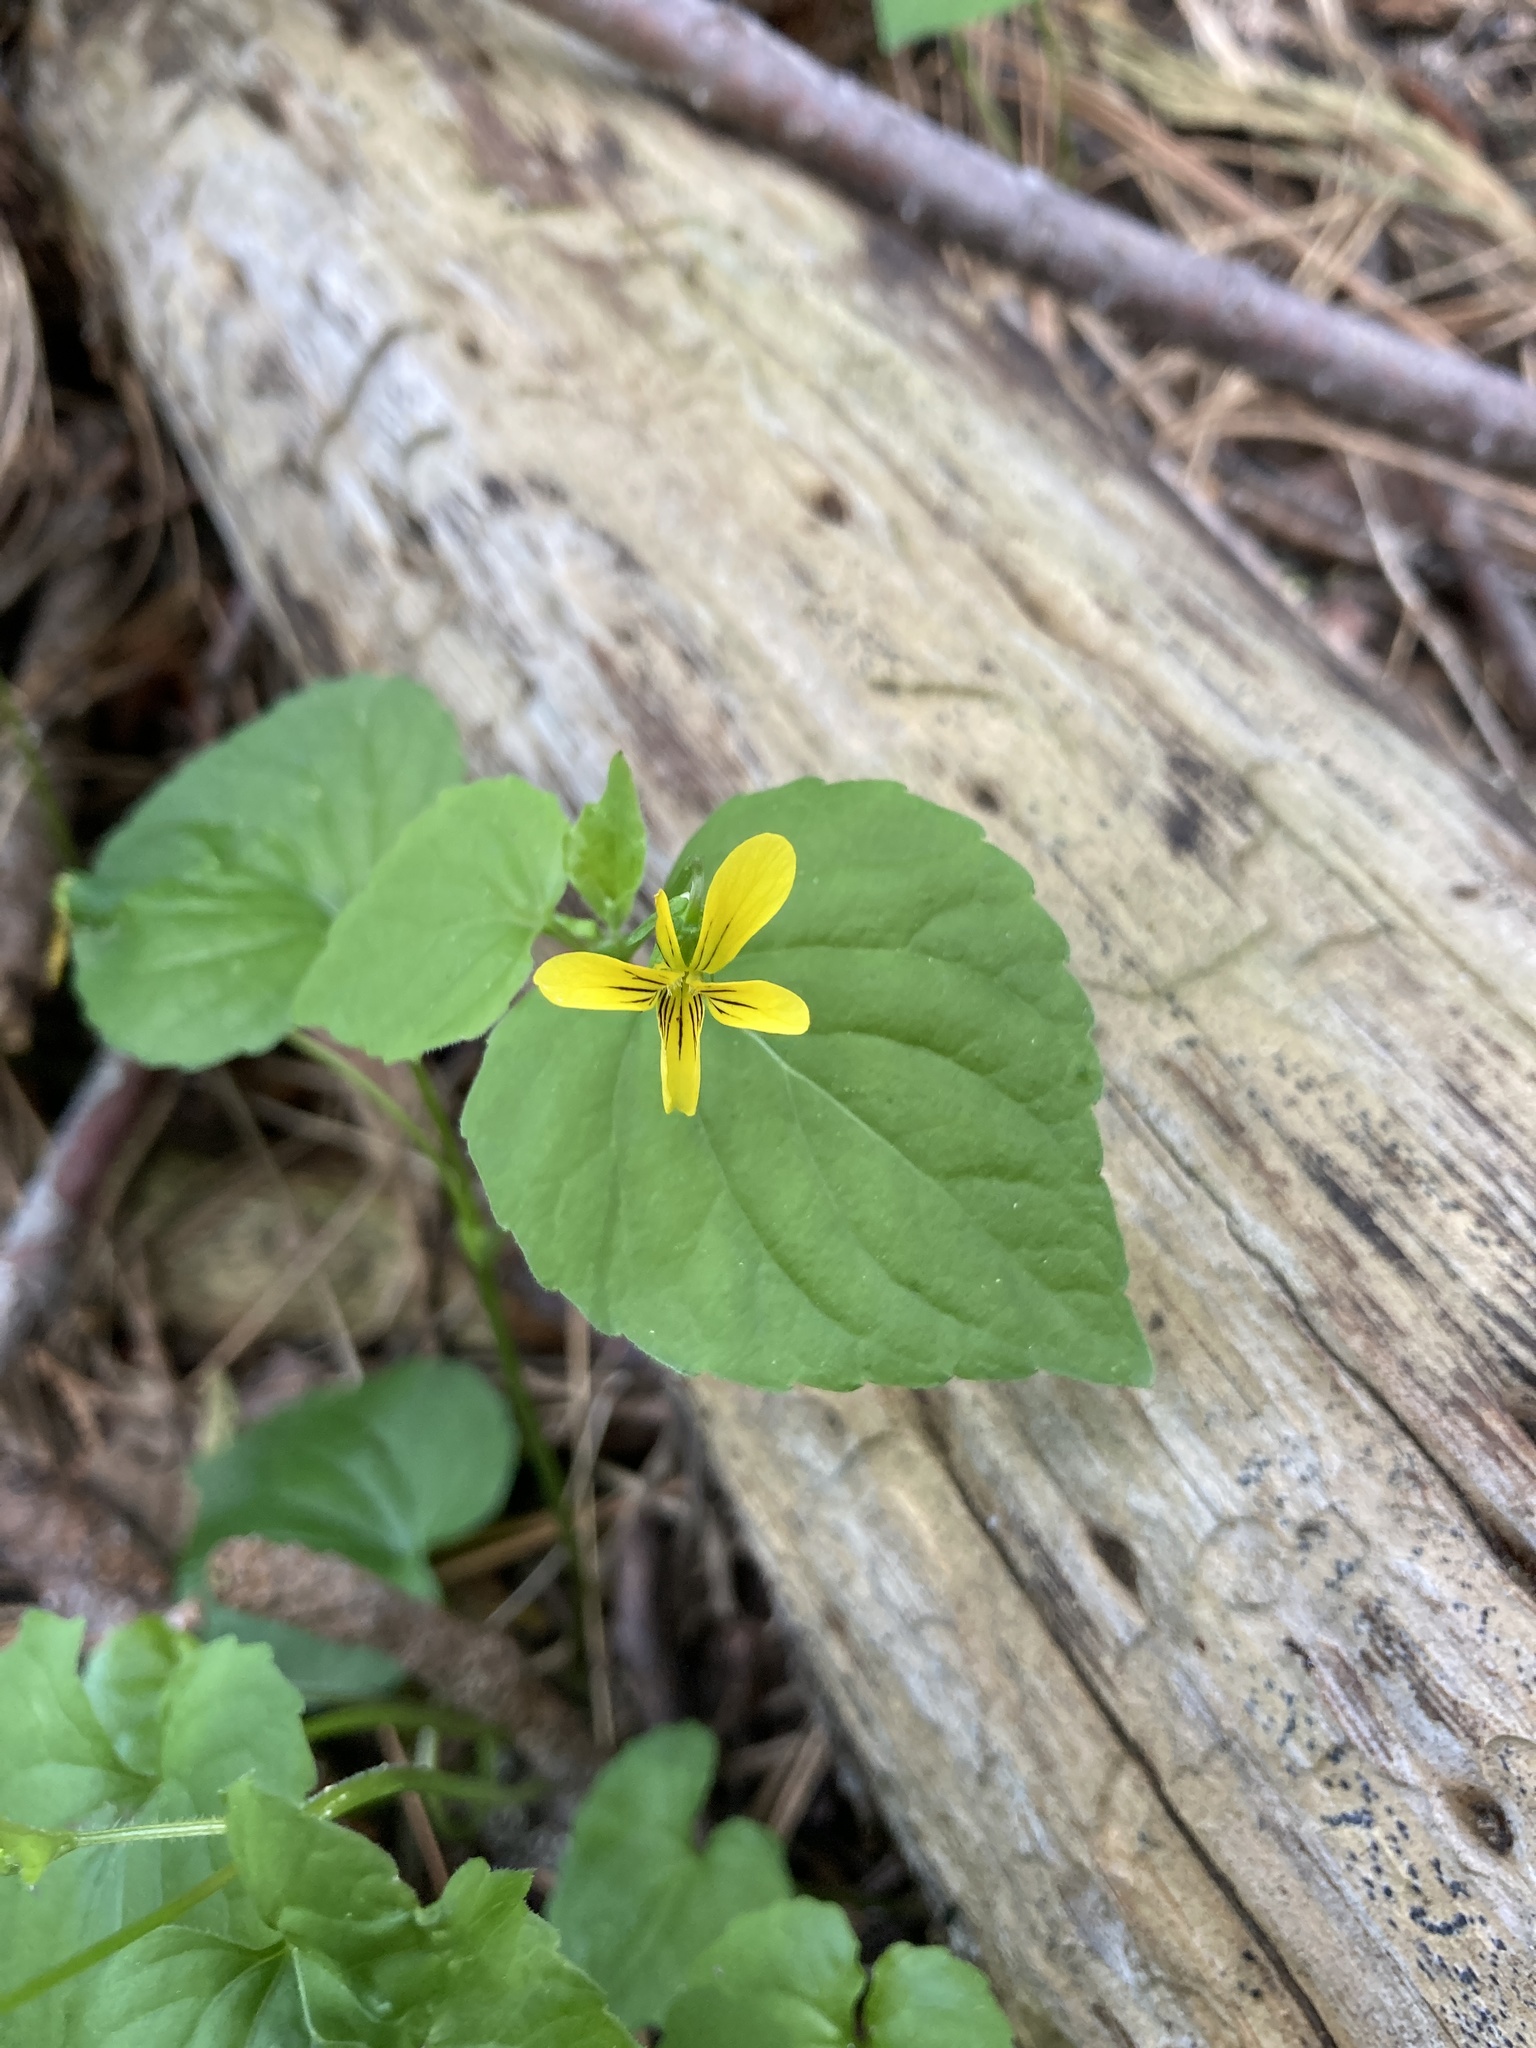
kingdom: Plantae
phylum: Tracheophyta
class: Magnoliopsida
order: Malpighiales
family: Violaceae
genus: Viola
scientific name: Viola glabella
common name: Stream violet
